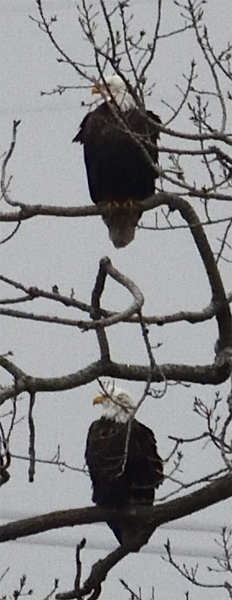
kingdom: Animalia
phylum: Chordata
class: Aves
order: Accipitriformes
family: Accipitridae
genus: Haliaeetus
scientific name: Haliaeetus leucocephalus
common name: Bald eagle
